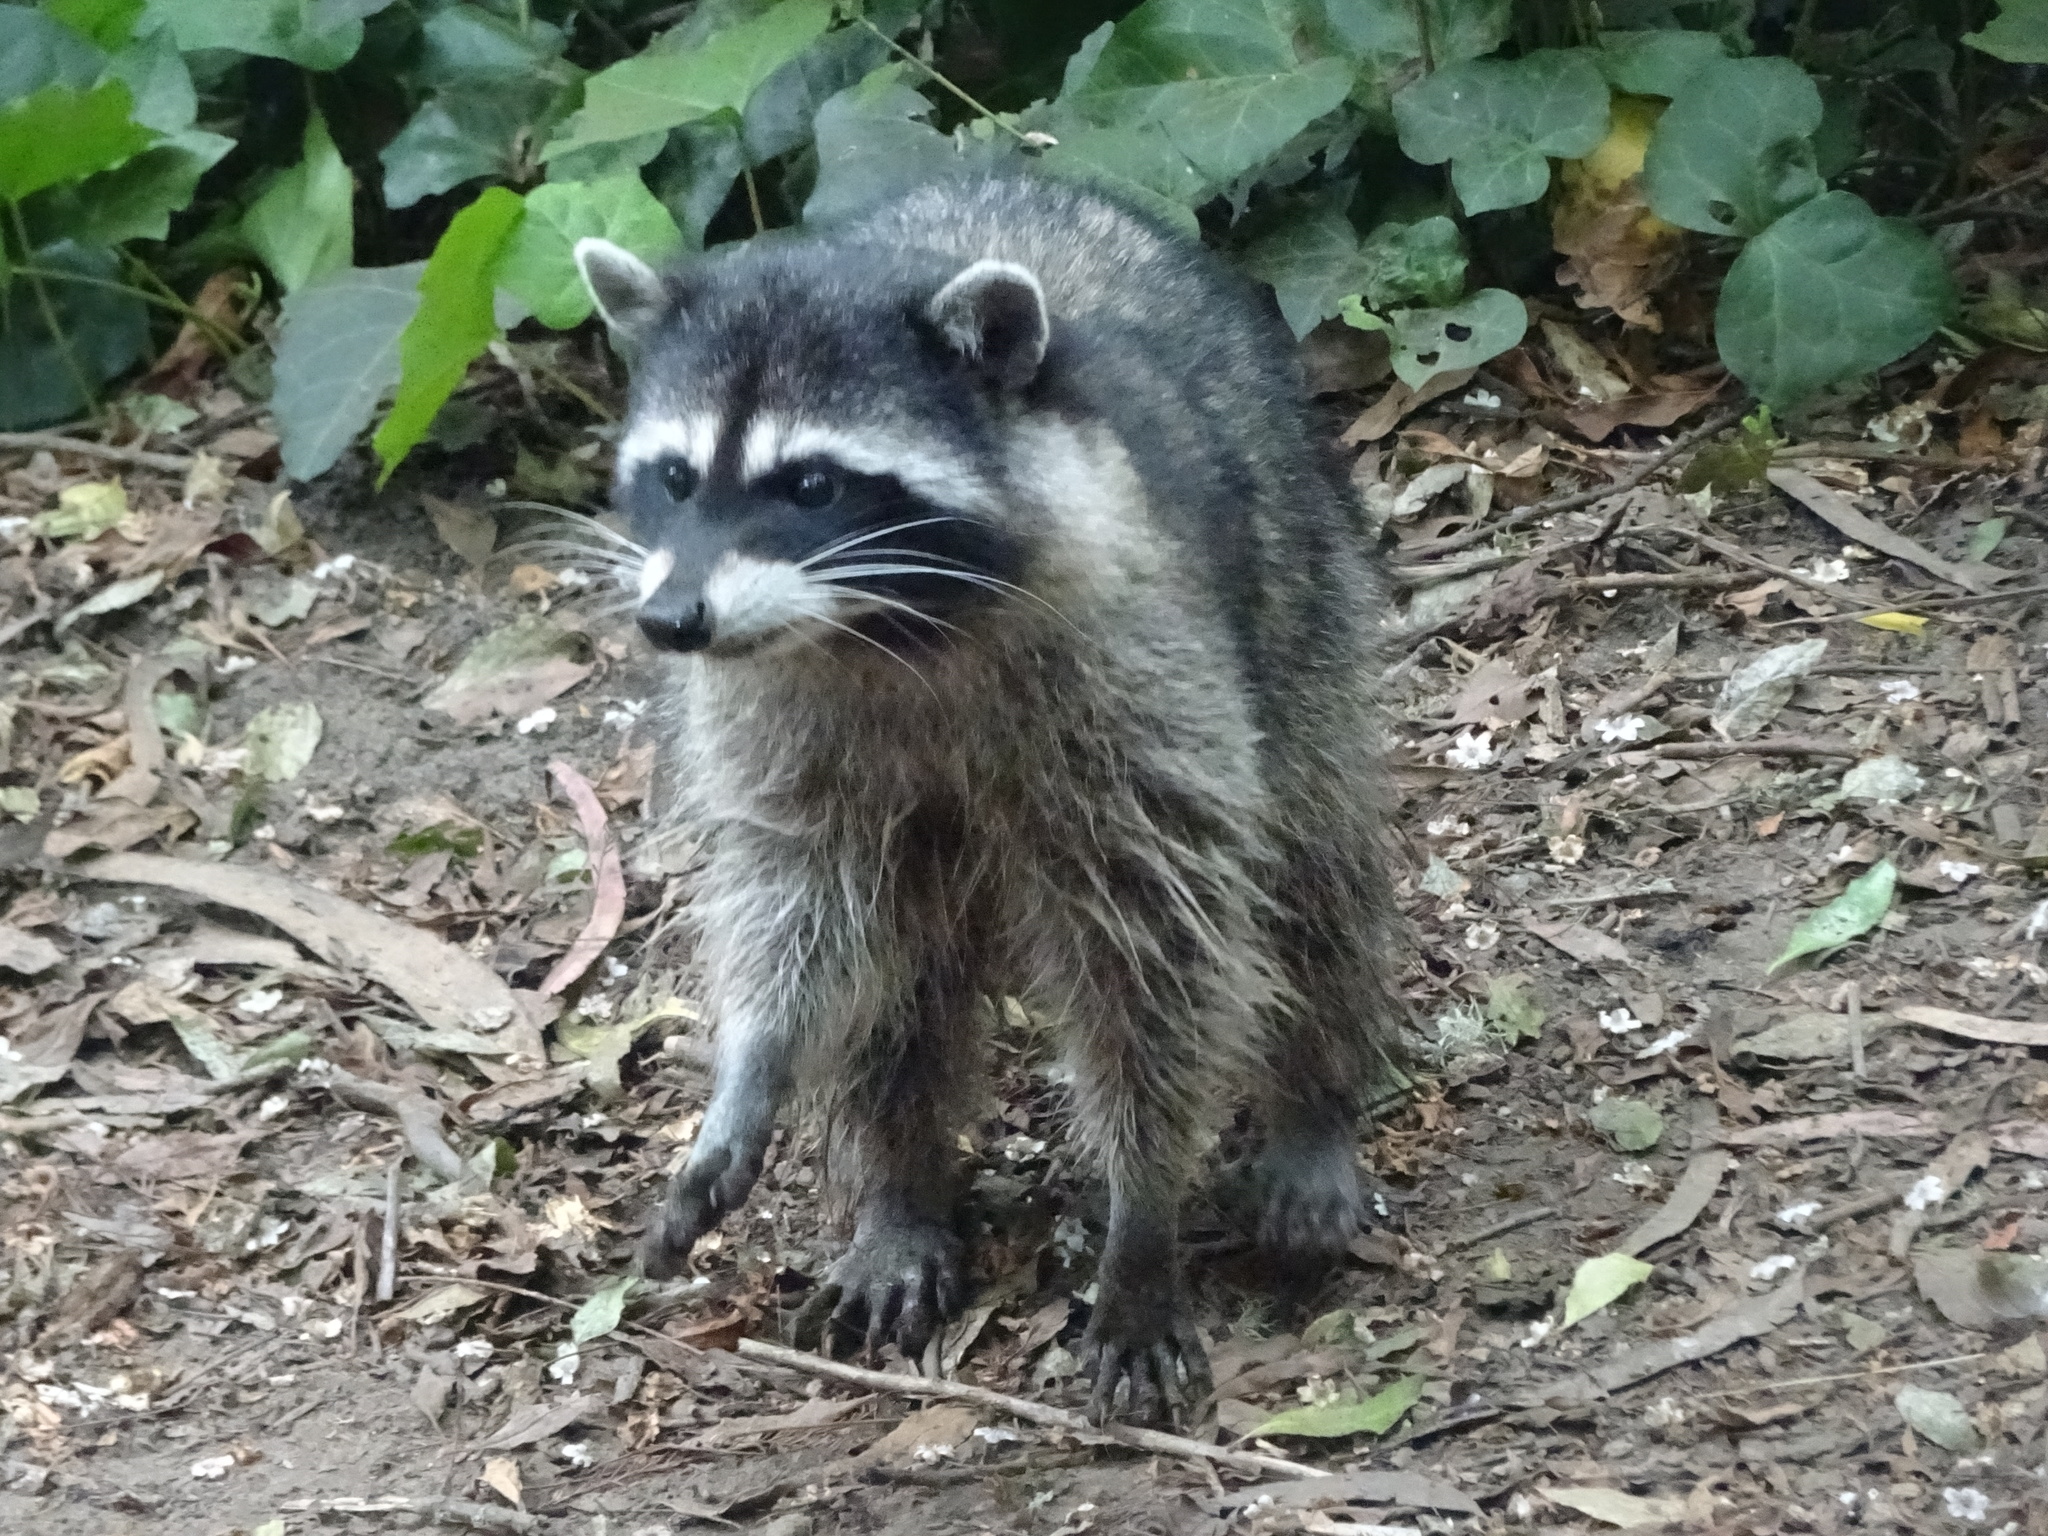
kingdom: Animalia
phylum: Chordata
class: Mammalia
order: Carnivora
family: Procyonidae
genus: Procyon
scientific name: Procyon lotor
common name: Raccoon
